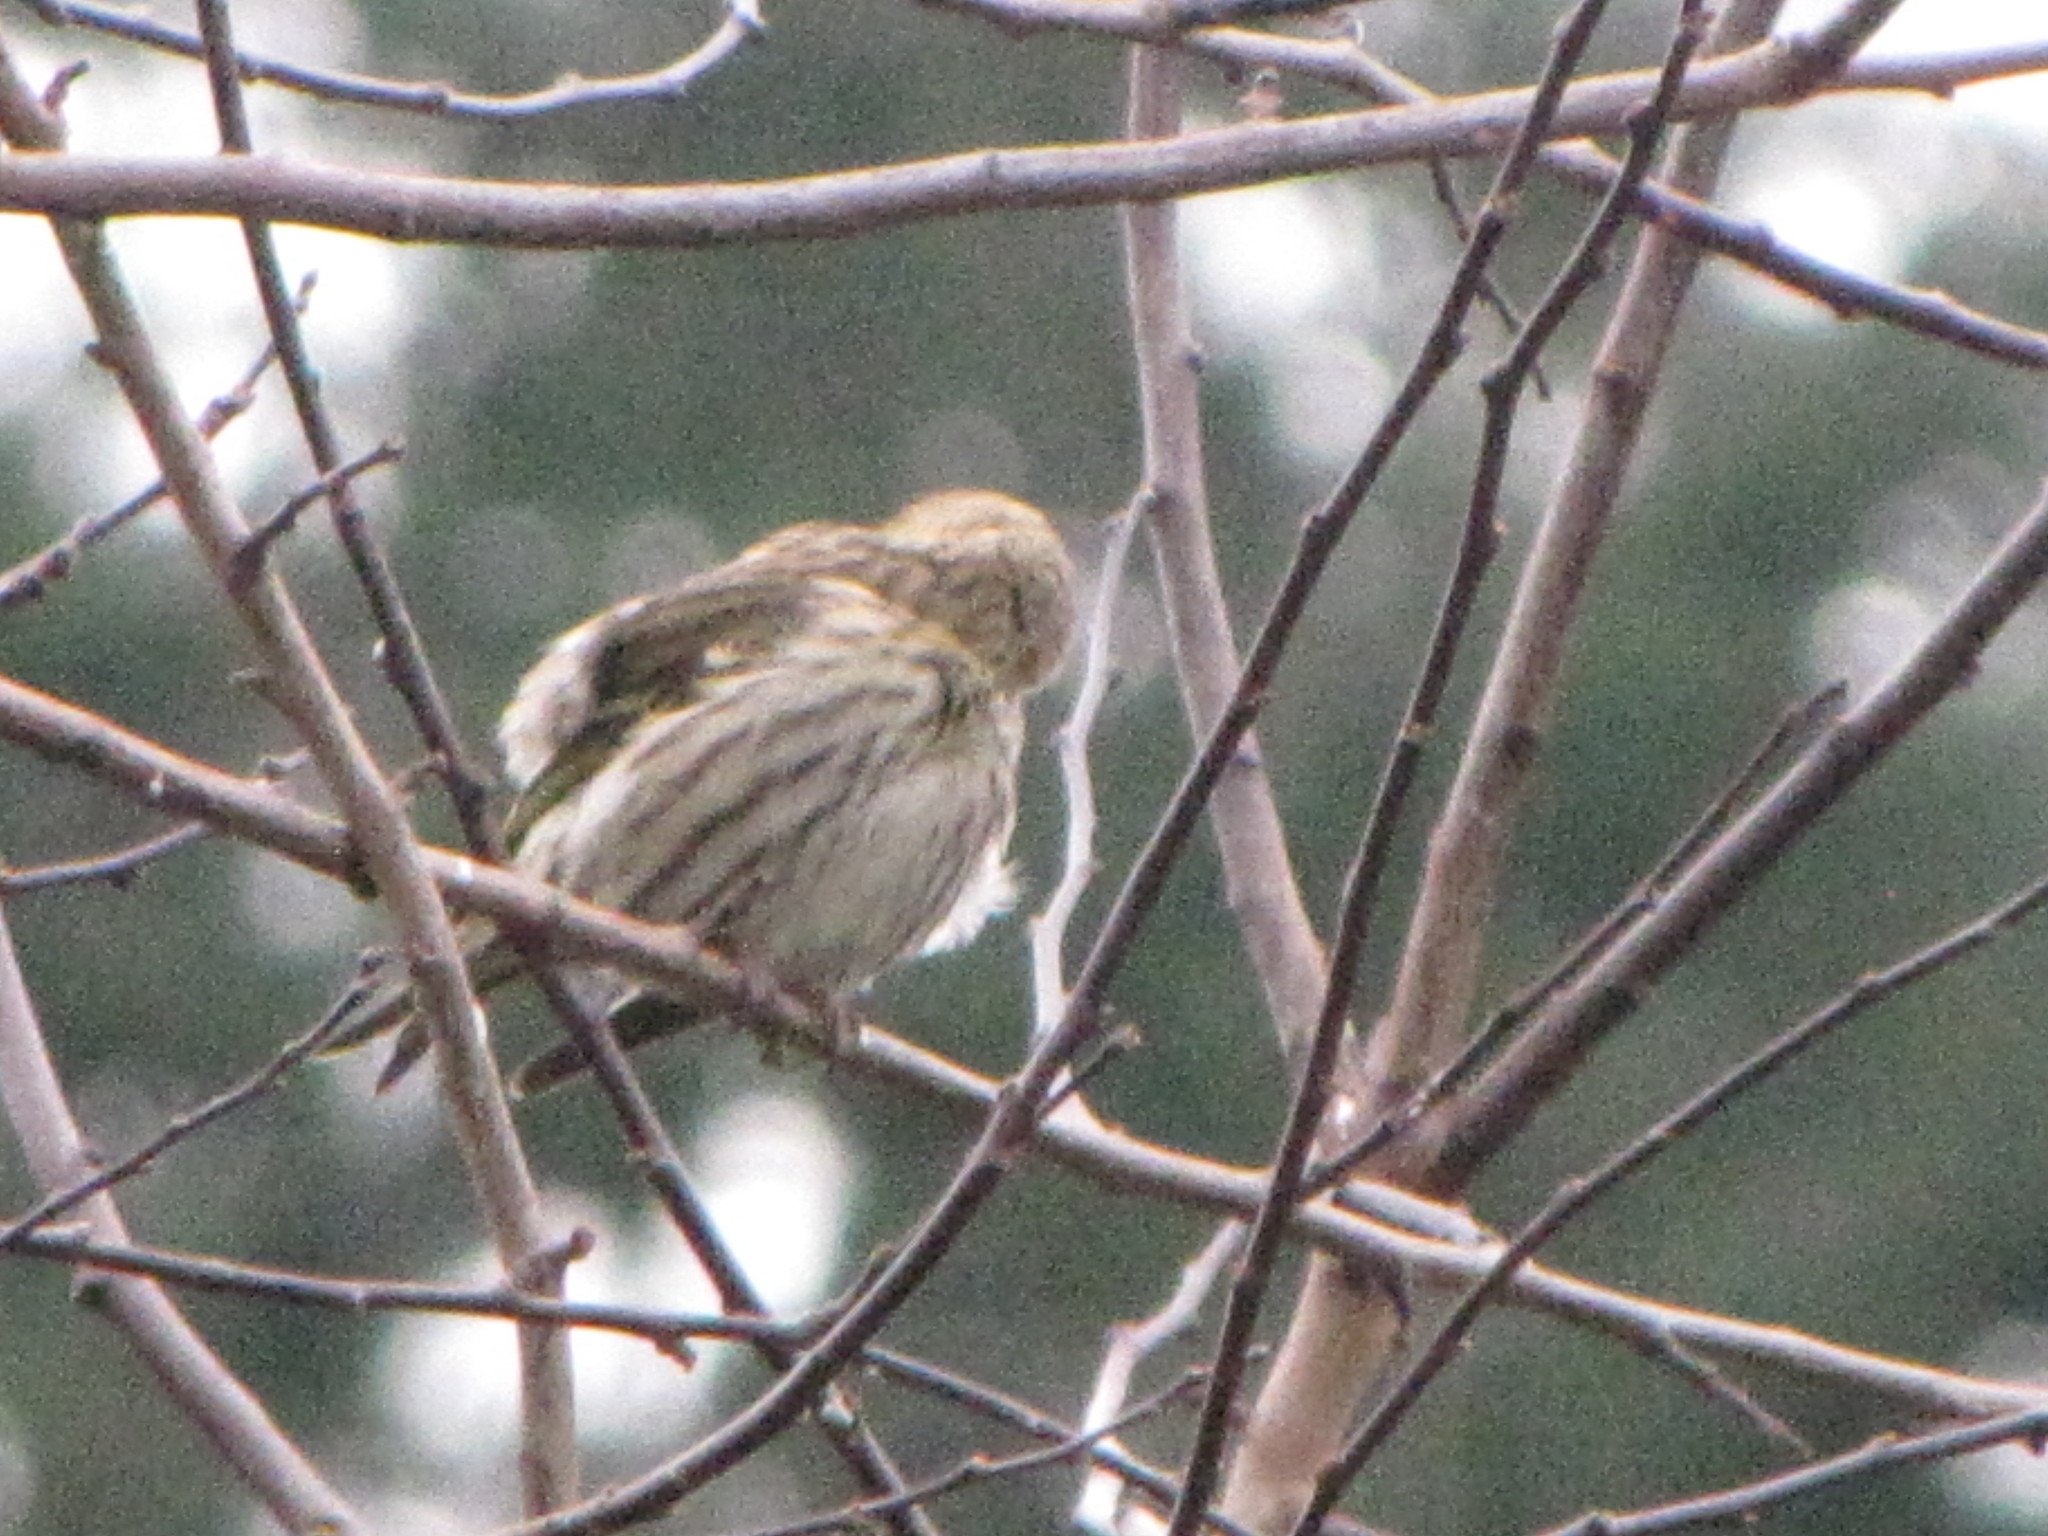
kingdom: Animalia
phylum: Chordata
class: Aves
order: Passeriformes
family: Fringillidae
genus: Spinus
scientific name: Spinus pinus
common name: Pine siskin
